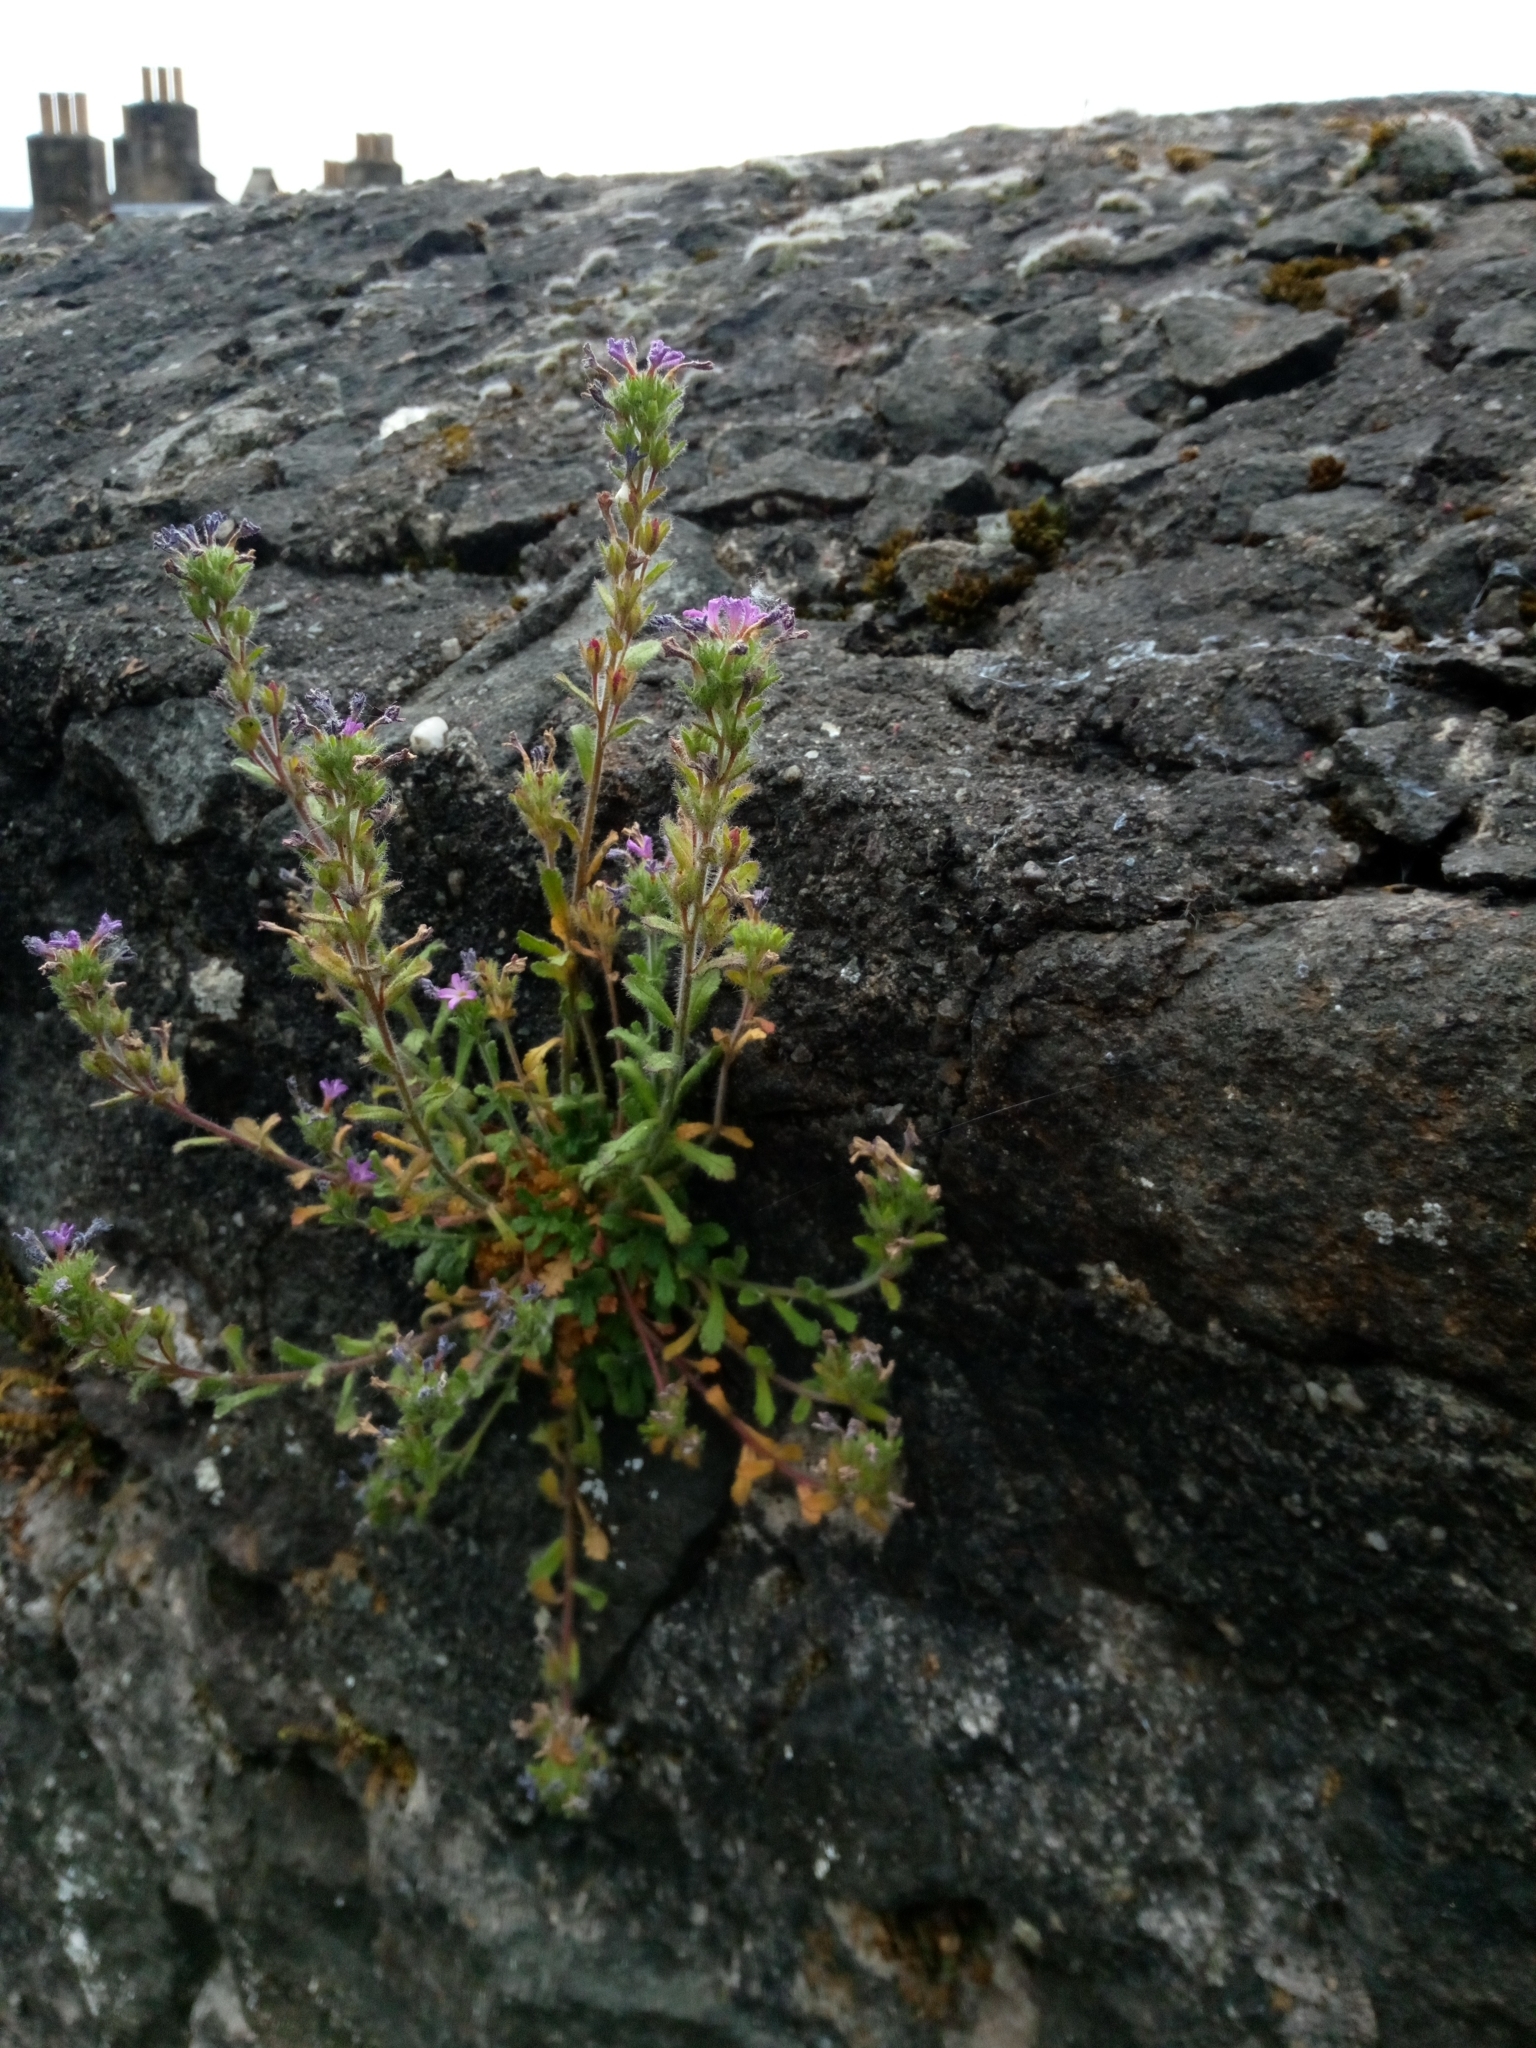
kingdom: Plantae
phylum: Tracheophyta
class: Magnoliopsida
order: Lamiales
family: Plantaginaceae
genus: Erinus
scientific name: Erinus alpinus
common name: Fairy foxglove
